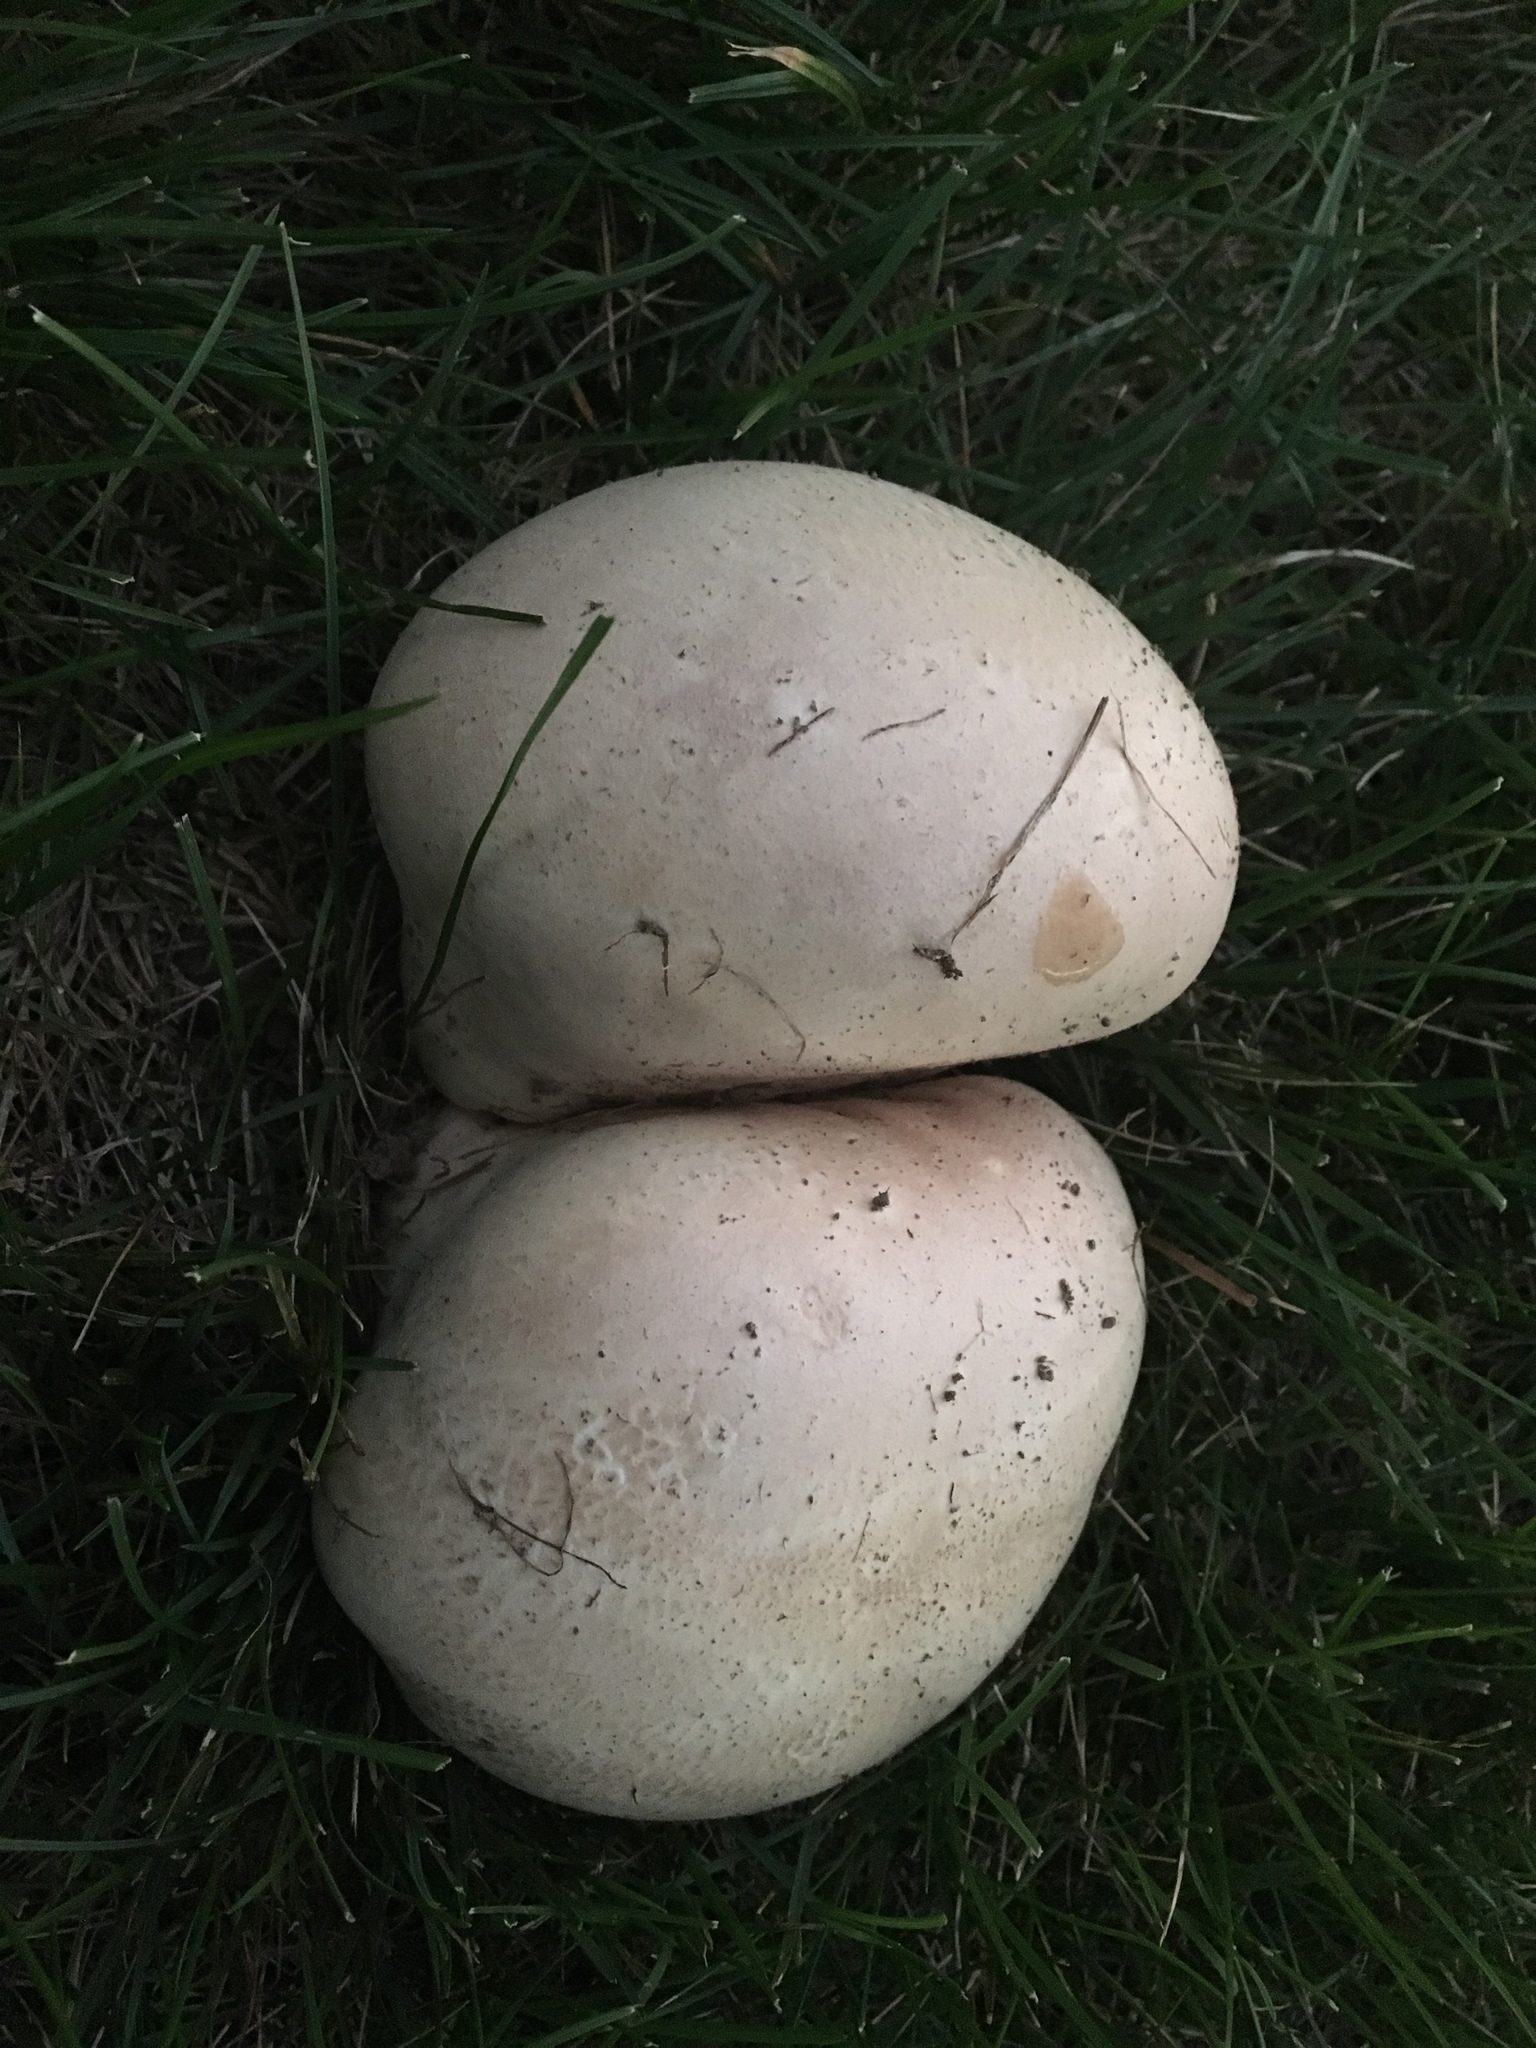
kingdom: Fungi
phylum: Basidiomycota
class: Agaricomycetes
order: Agaricales
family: Lycoperdaceae
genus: Calvatia
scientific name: Calvatia gigantea
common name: Giant puffball
